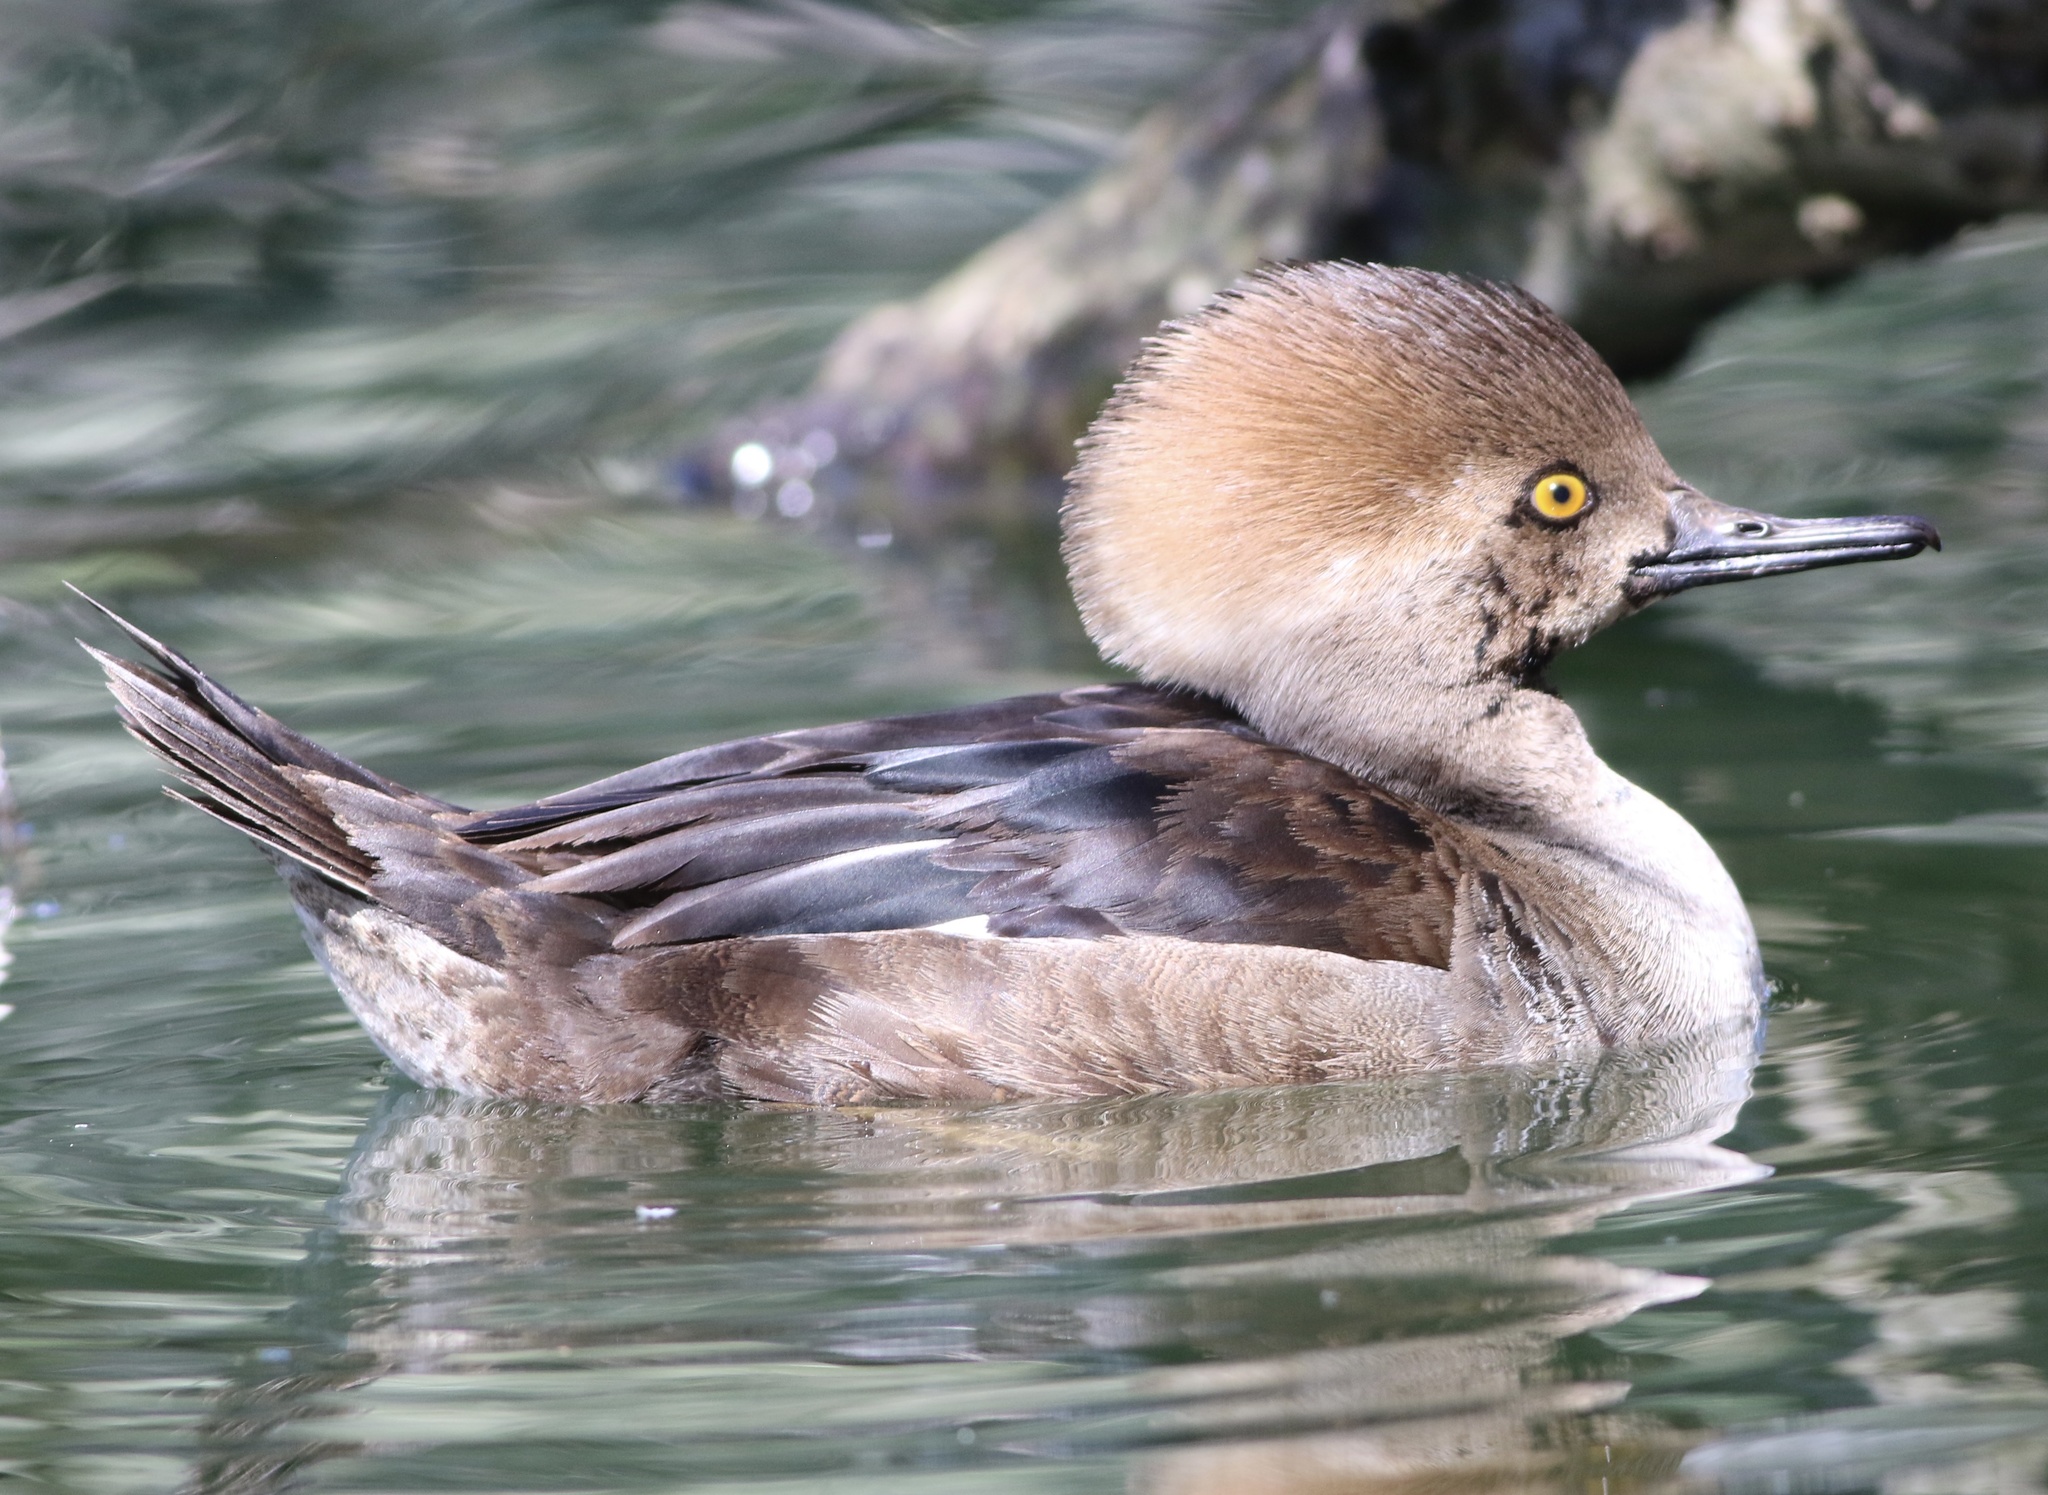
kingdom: Animalia
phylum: Chordata
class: Aves
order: Anseriformes
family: Anatidae
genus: Lophodytes
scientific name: Lophodytes cucullatus
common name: Hooded merganser
